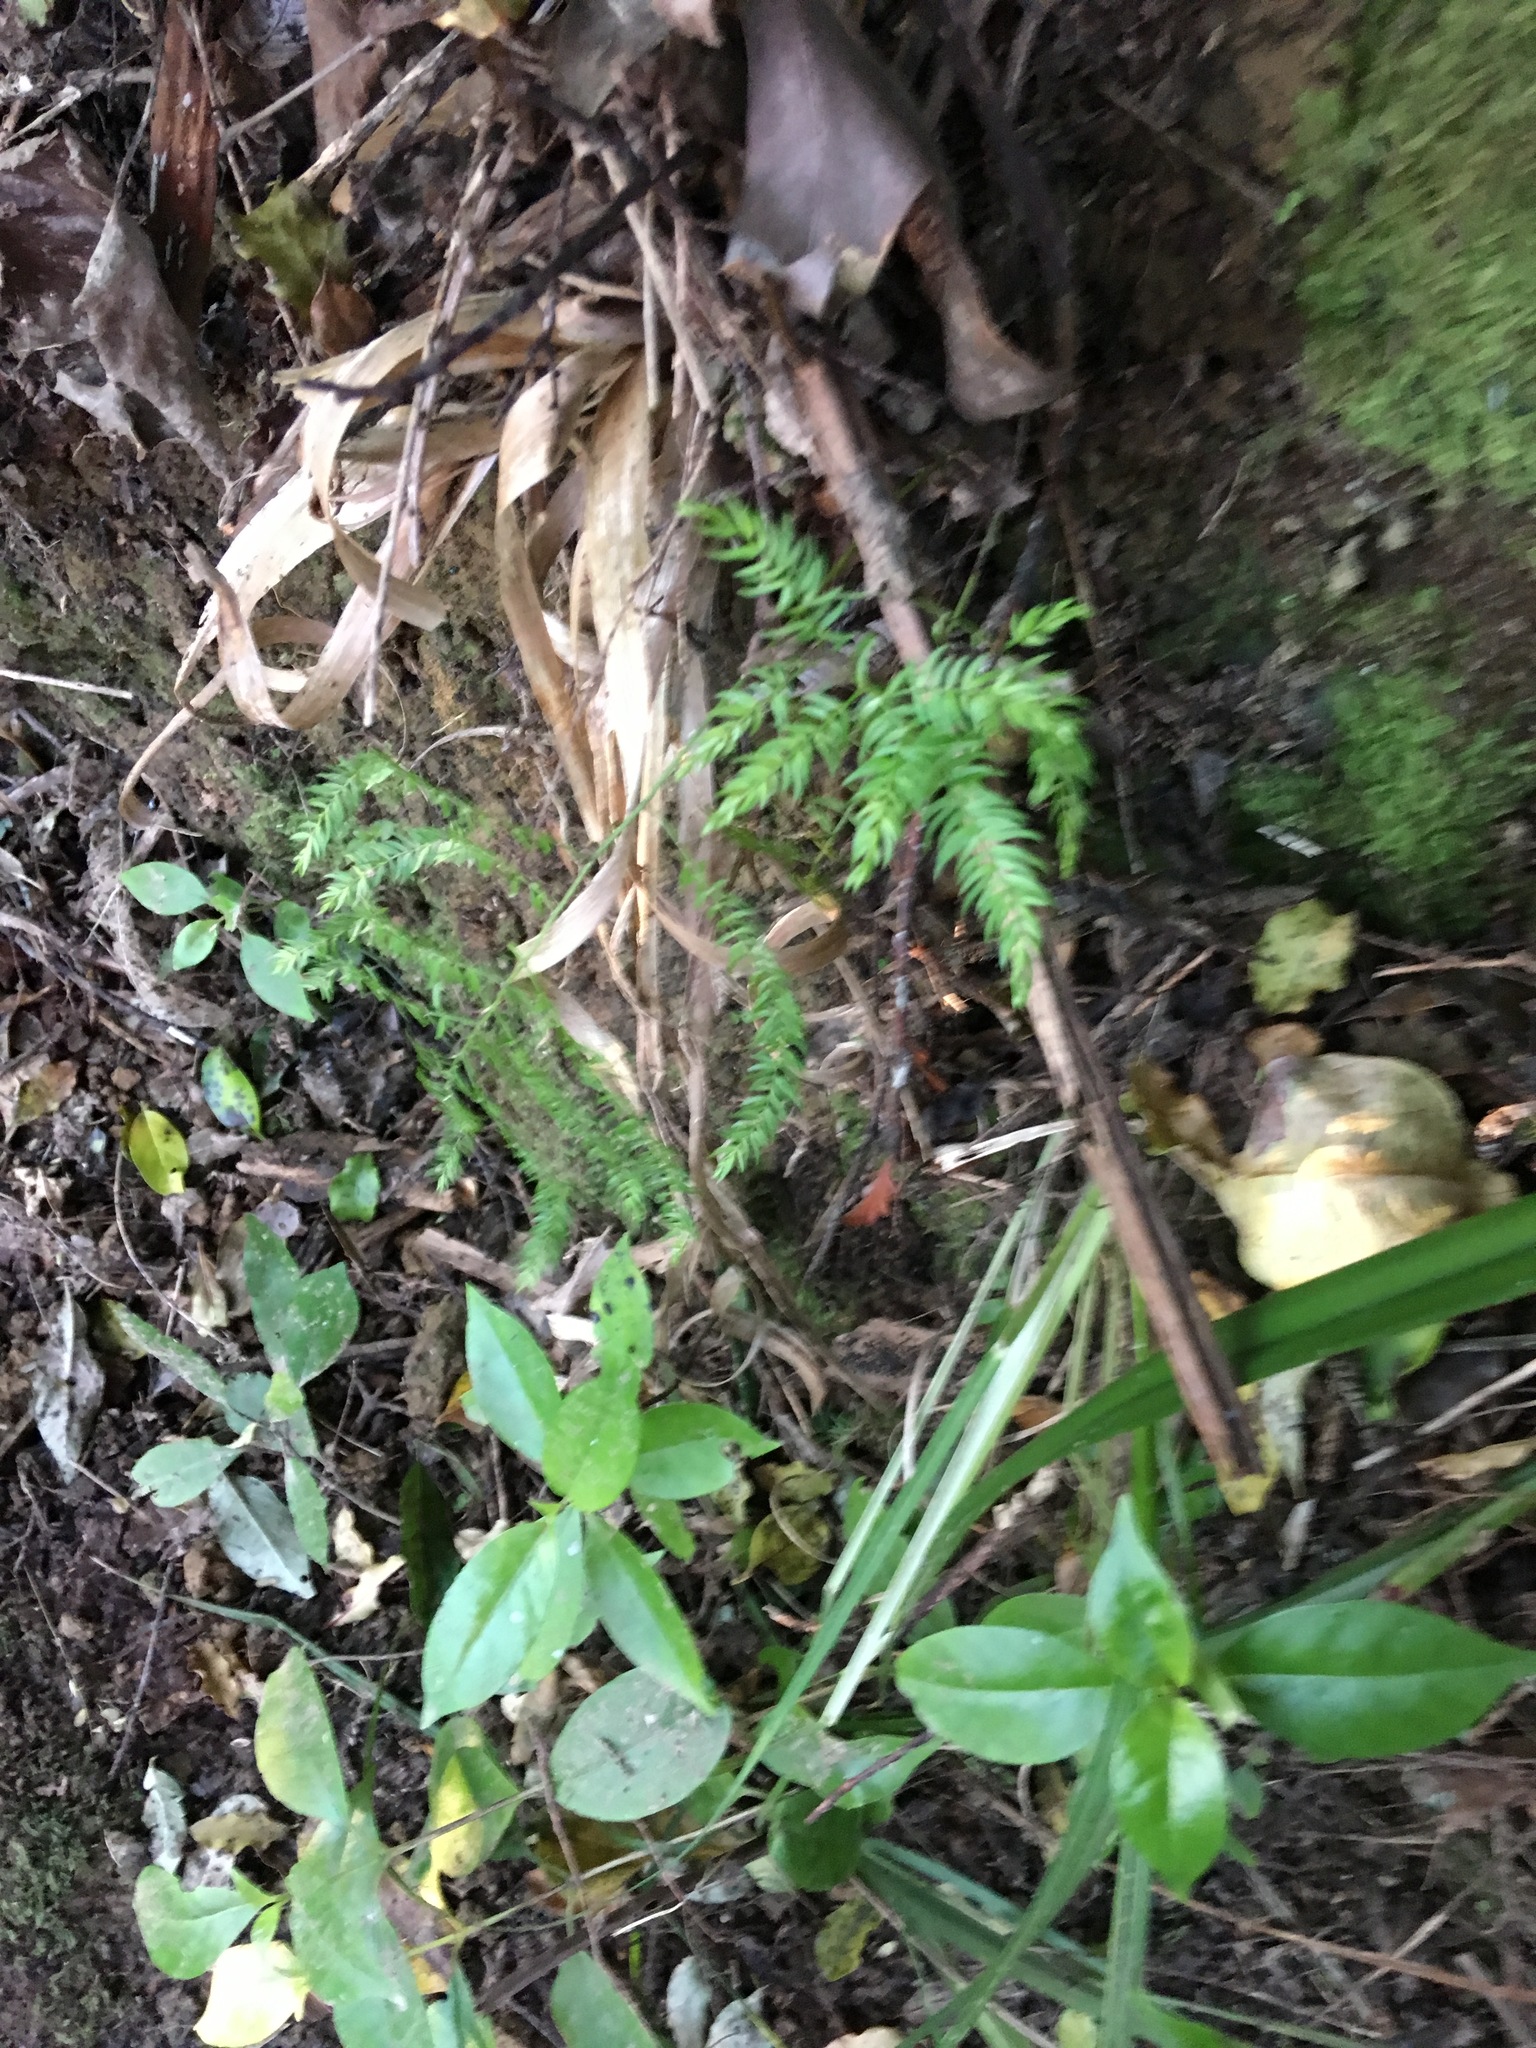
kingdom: Plantae
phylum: Tracheophyta
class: Liliopsida
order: Asparagales
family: Asparagaceae
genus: Asparagus
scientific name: Asparagus scandens
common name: Asparagus-fern
